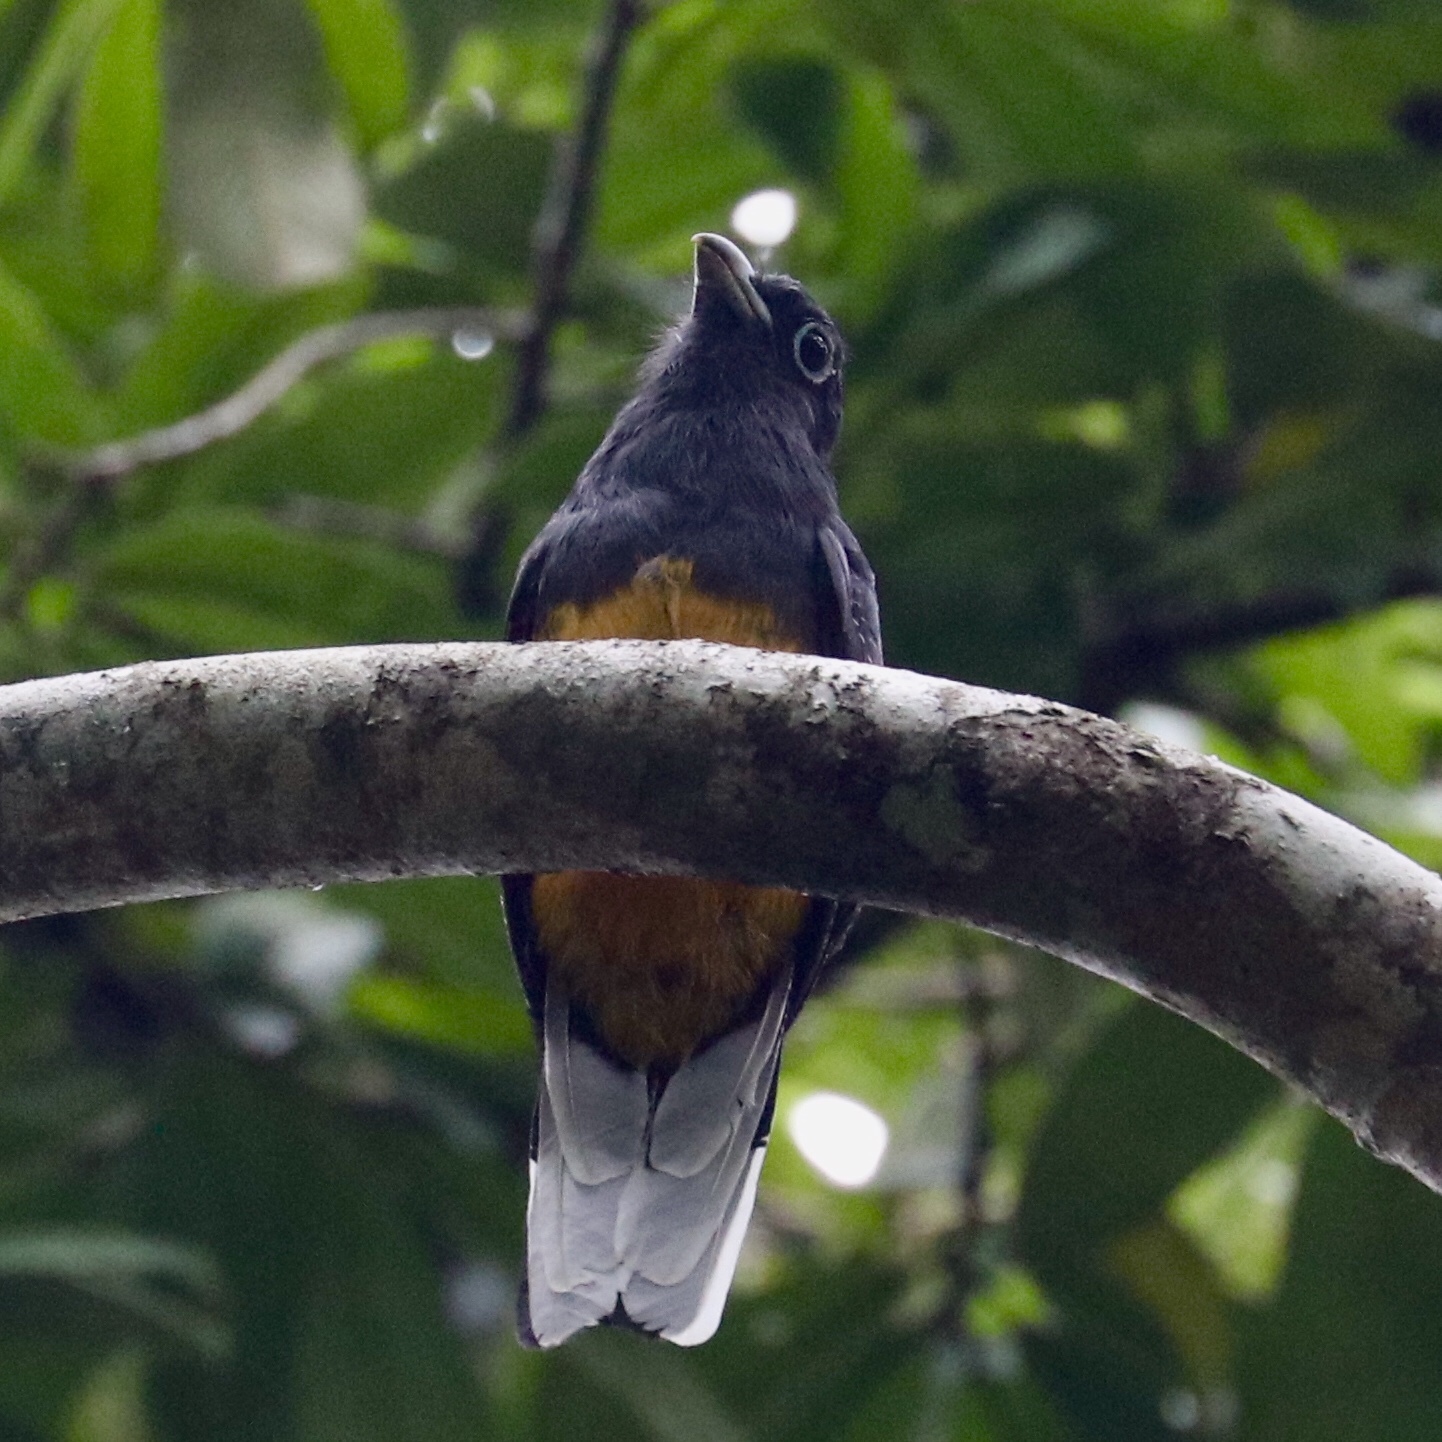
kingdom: Animalia
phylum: Chordata
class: Aves
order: Trogoniformes
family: Trogonidae
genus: Trogon
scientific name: Trogon chionurus
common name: White-tailed trogon
